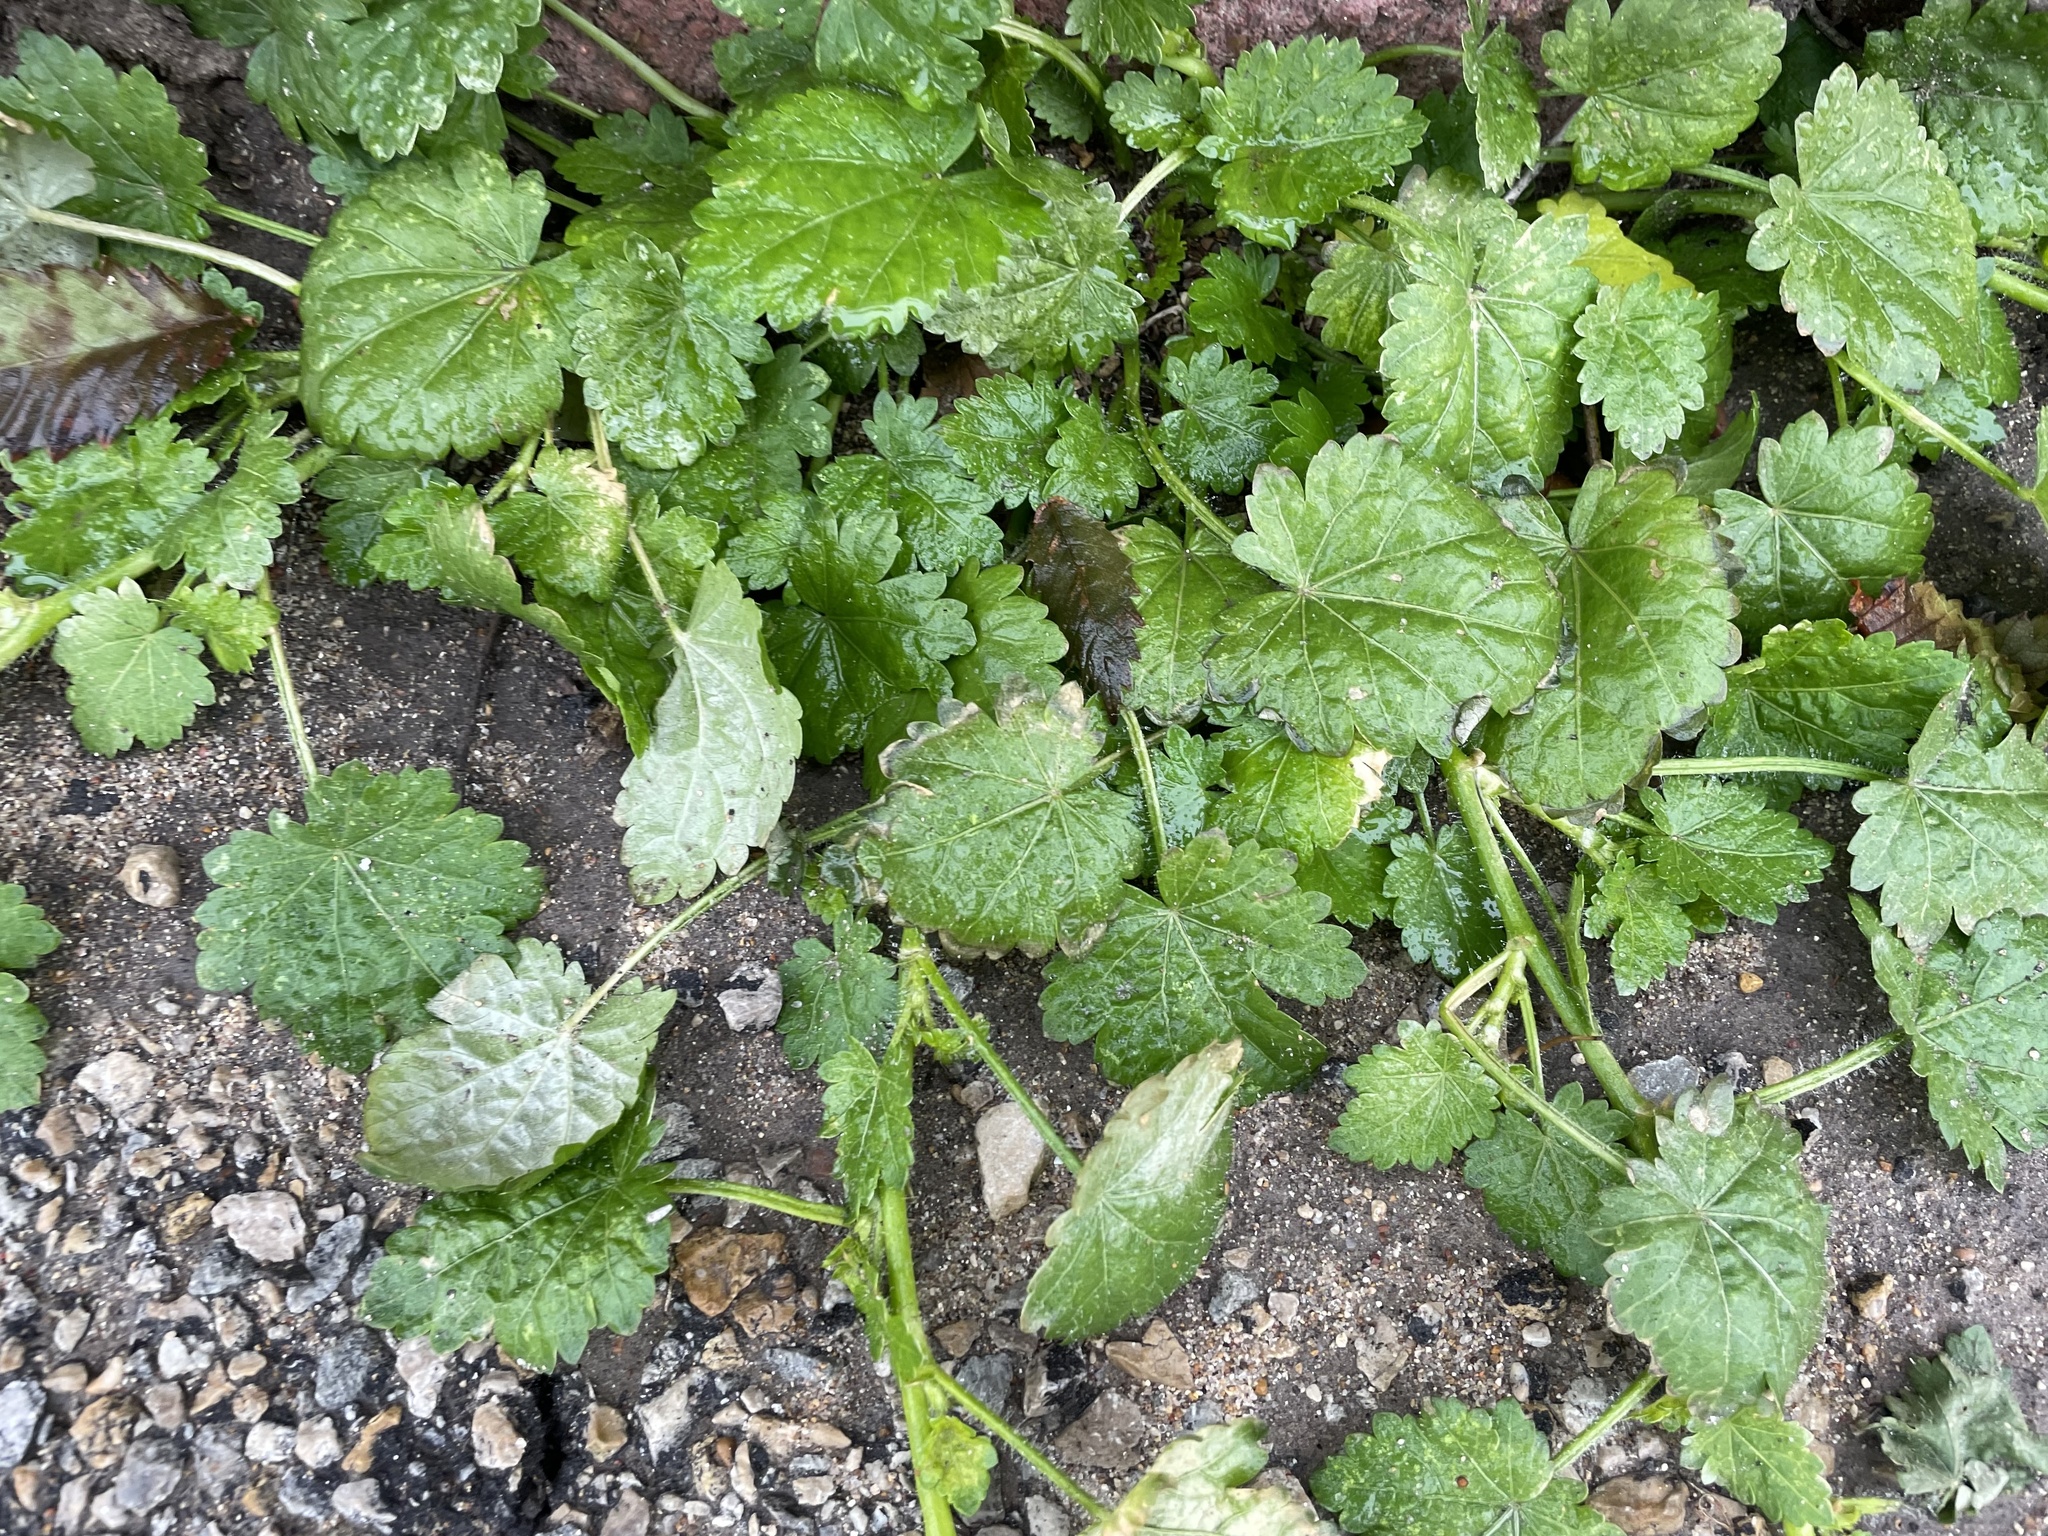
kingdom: Plantae
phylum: Tracheophyta
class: Magnoliopsida
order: Malvales
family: Malvaceae
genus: Modiola
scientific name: Modiola caroliniana
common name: Carolina bristlemallow
